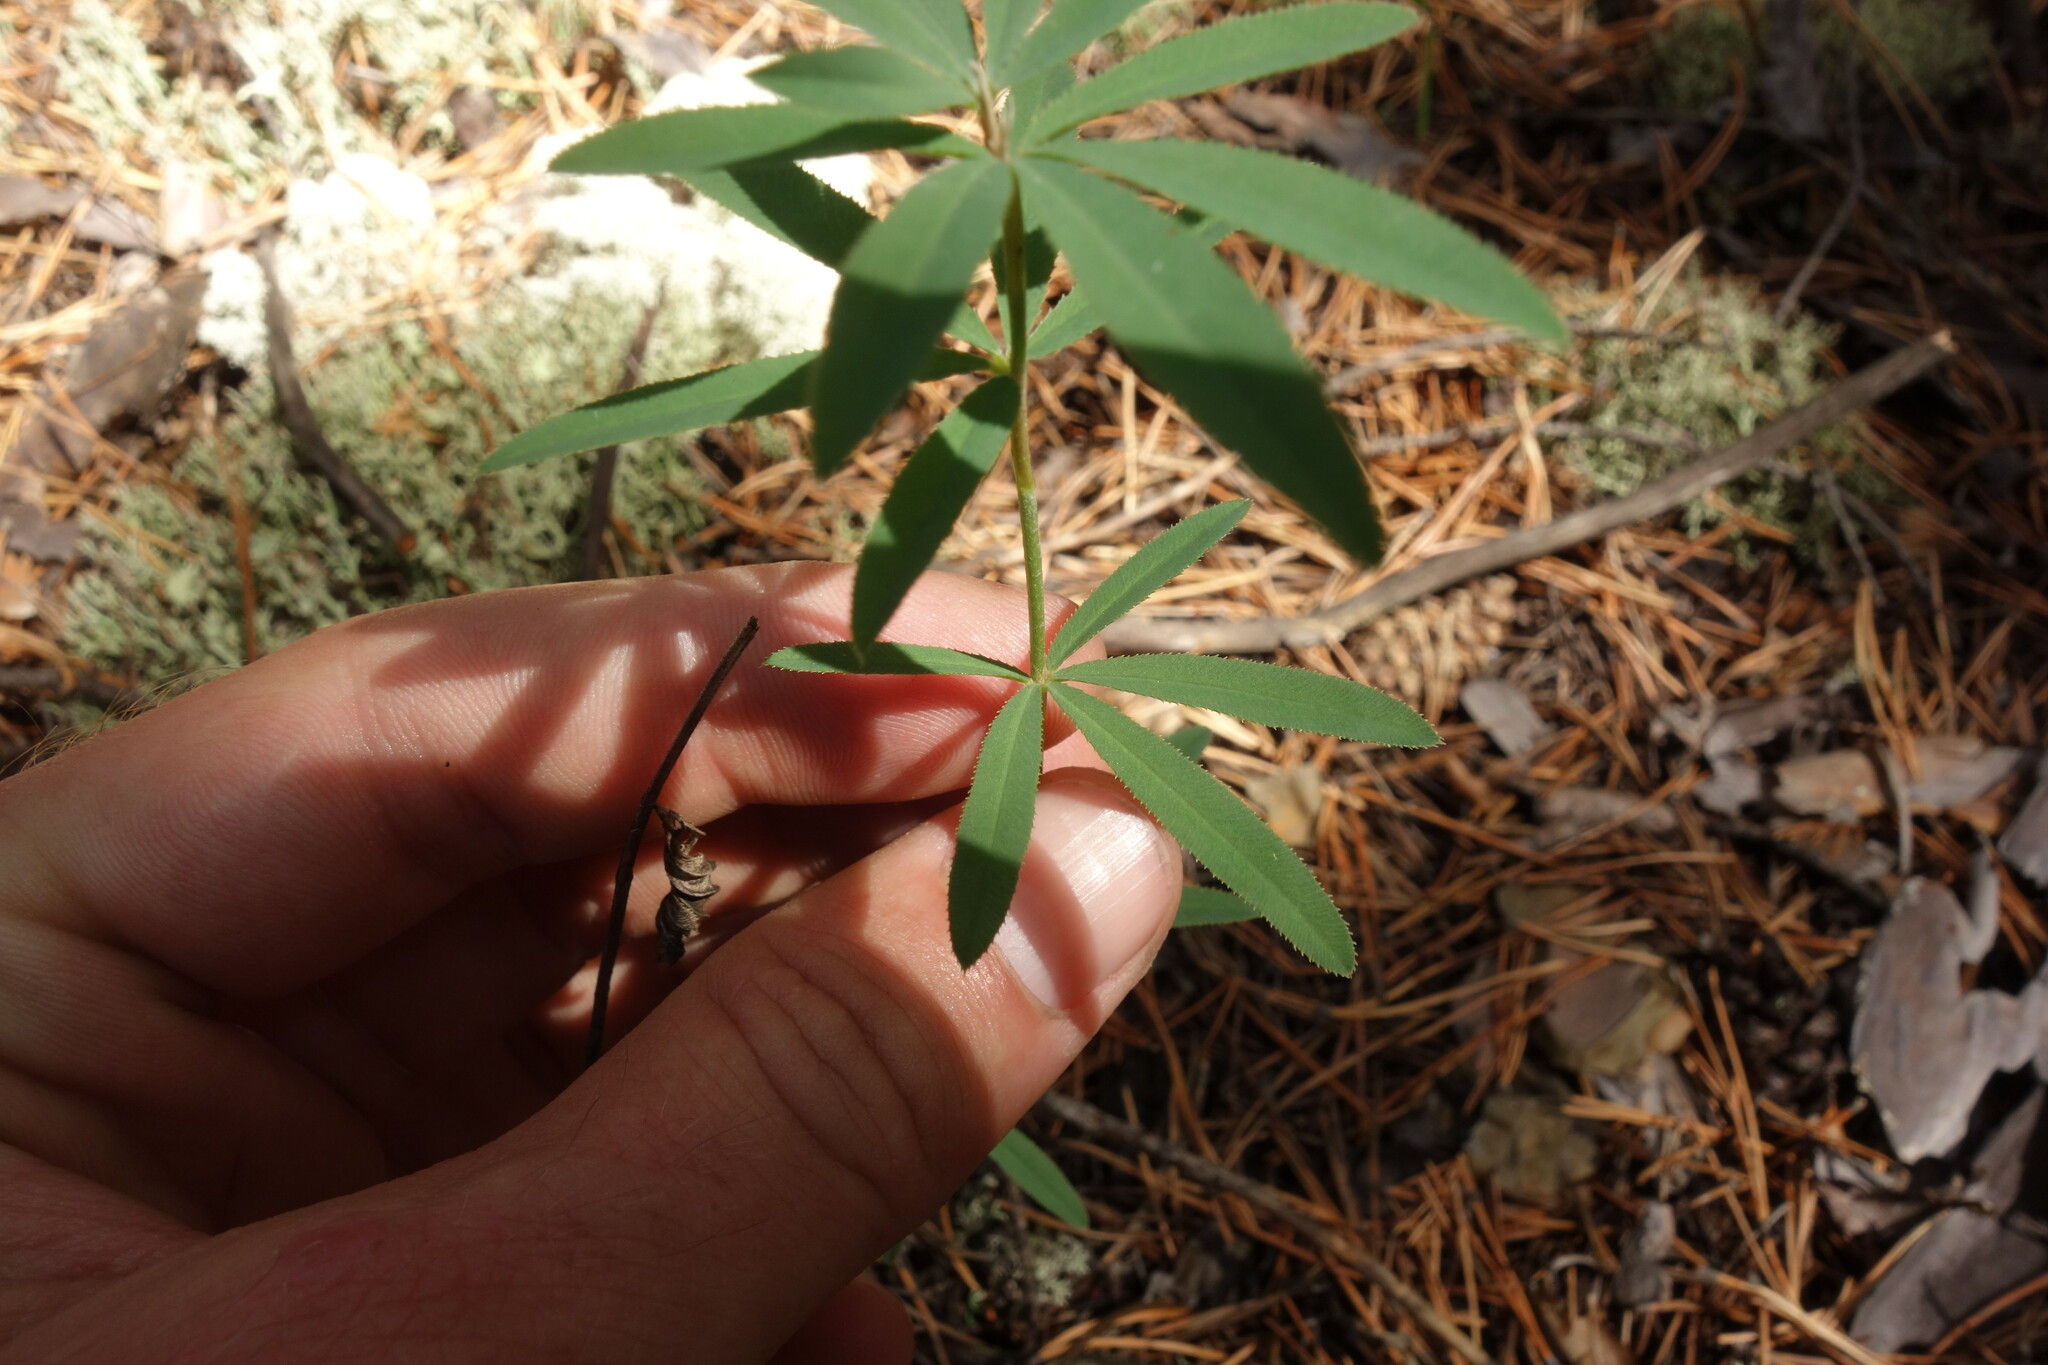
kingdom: Plantae
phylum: Tracheophyta
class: Magnoliopsida
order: Fabales
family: Fabaceae
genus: Trifolium
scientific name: Trifolium lupinaster
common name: Lupine clover
